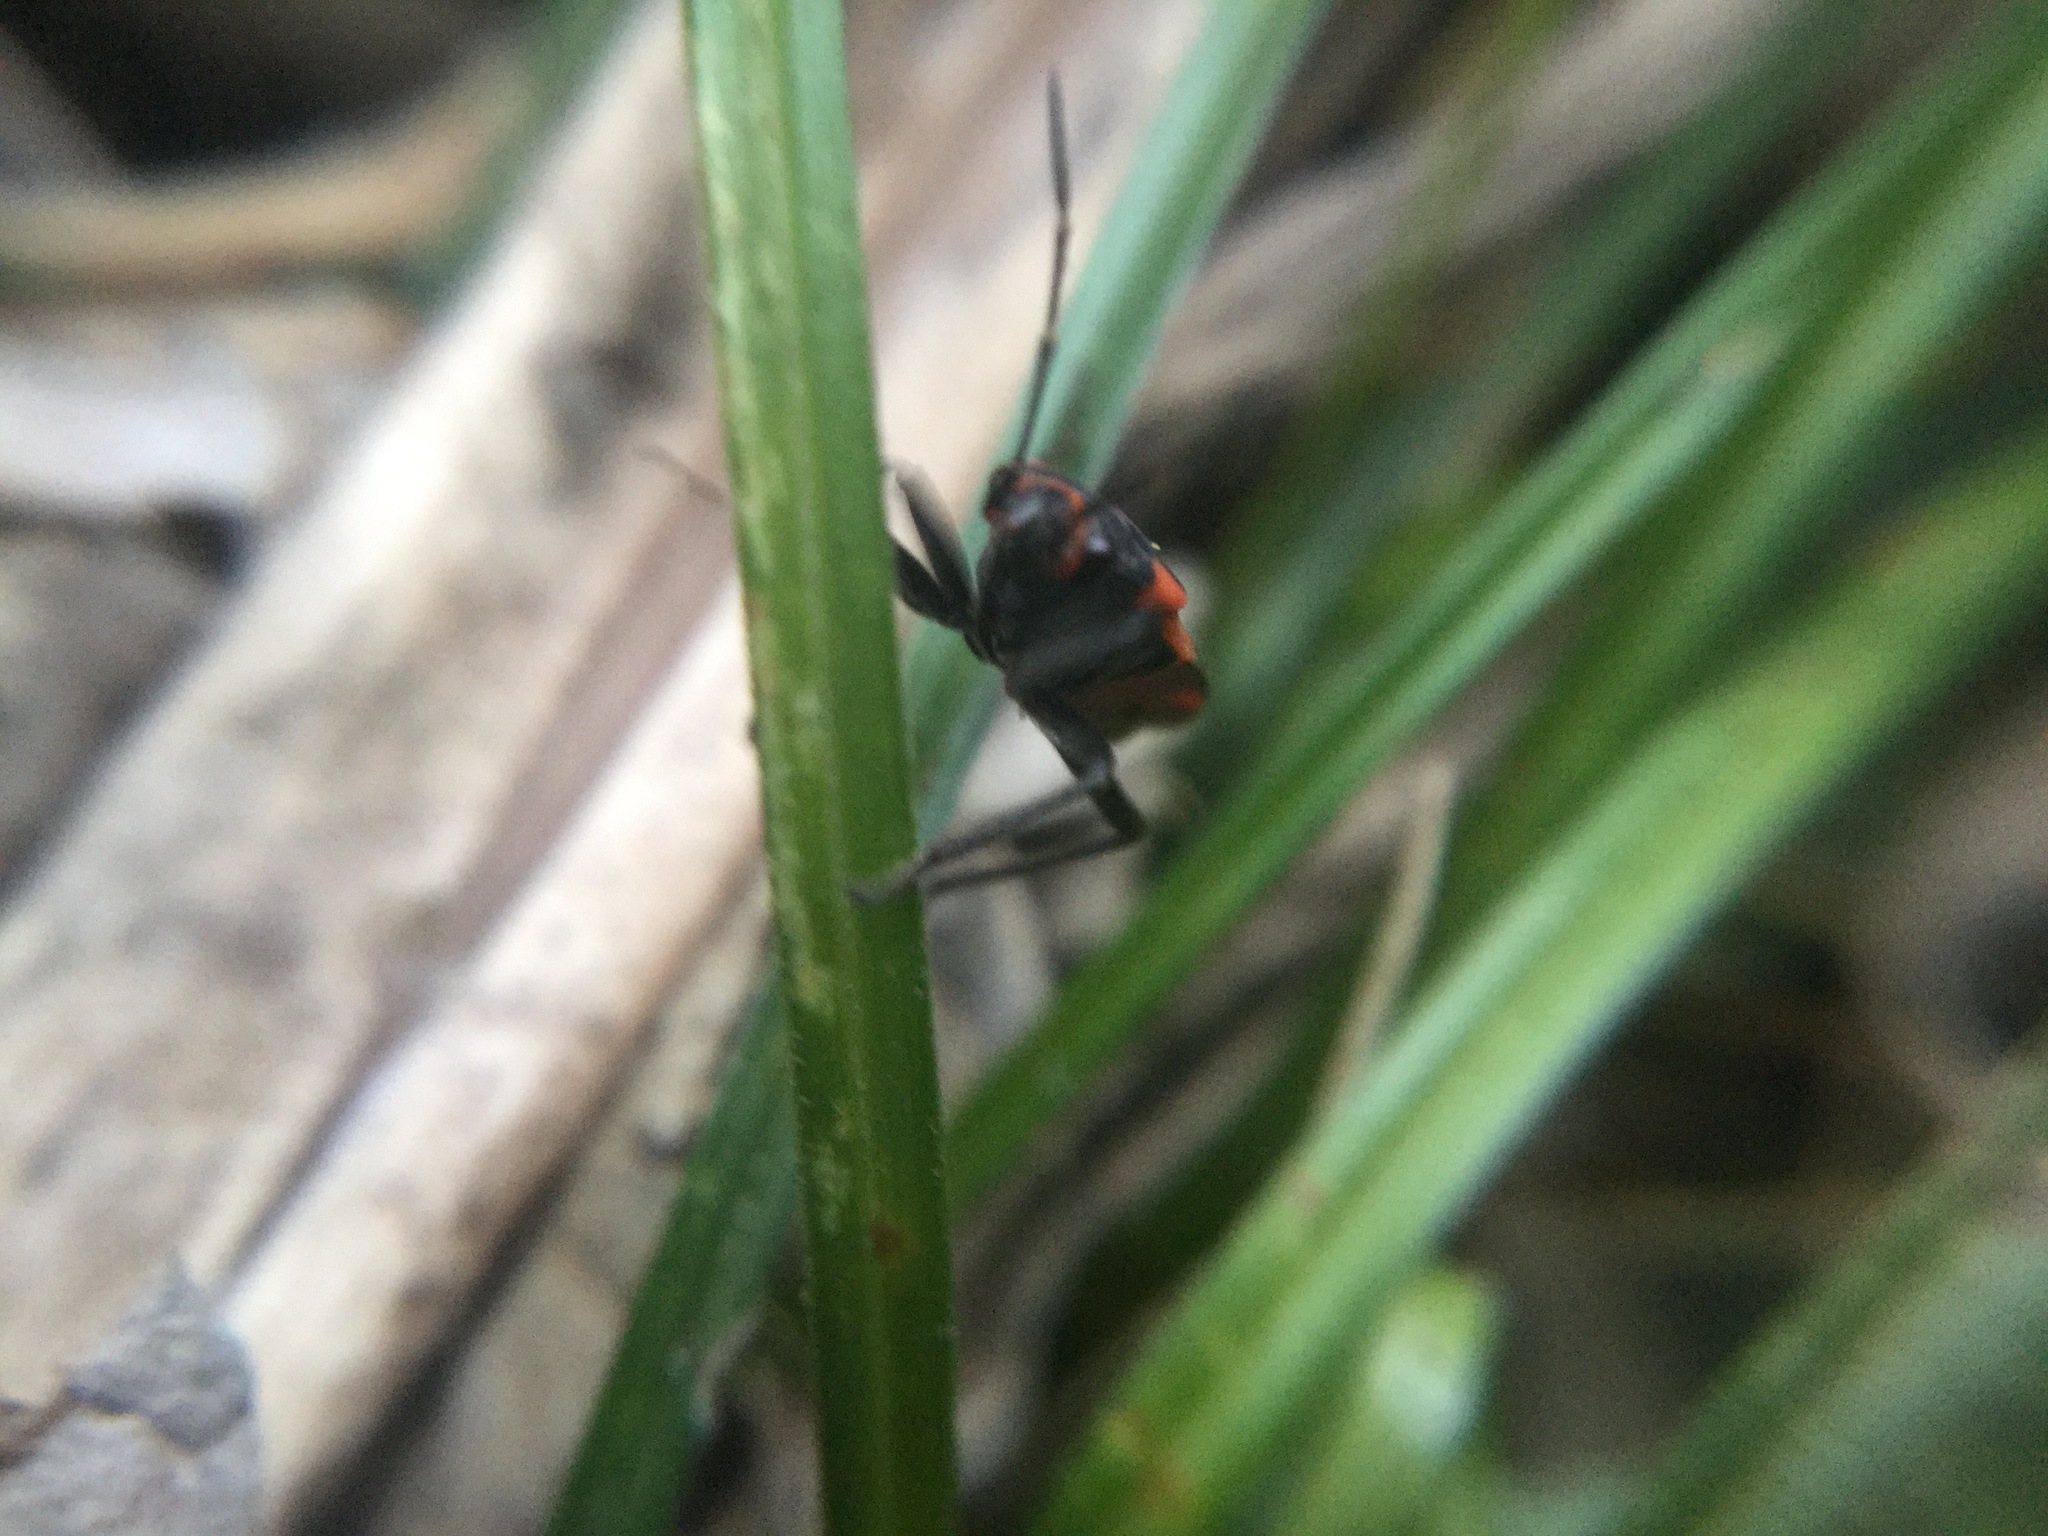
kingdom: Animalia
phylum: Arthropoda
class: Insecta
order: Hemiptera
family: Lygaeidae
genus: Lygaeus
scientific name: Lygaeus turcicus
